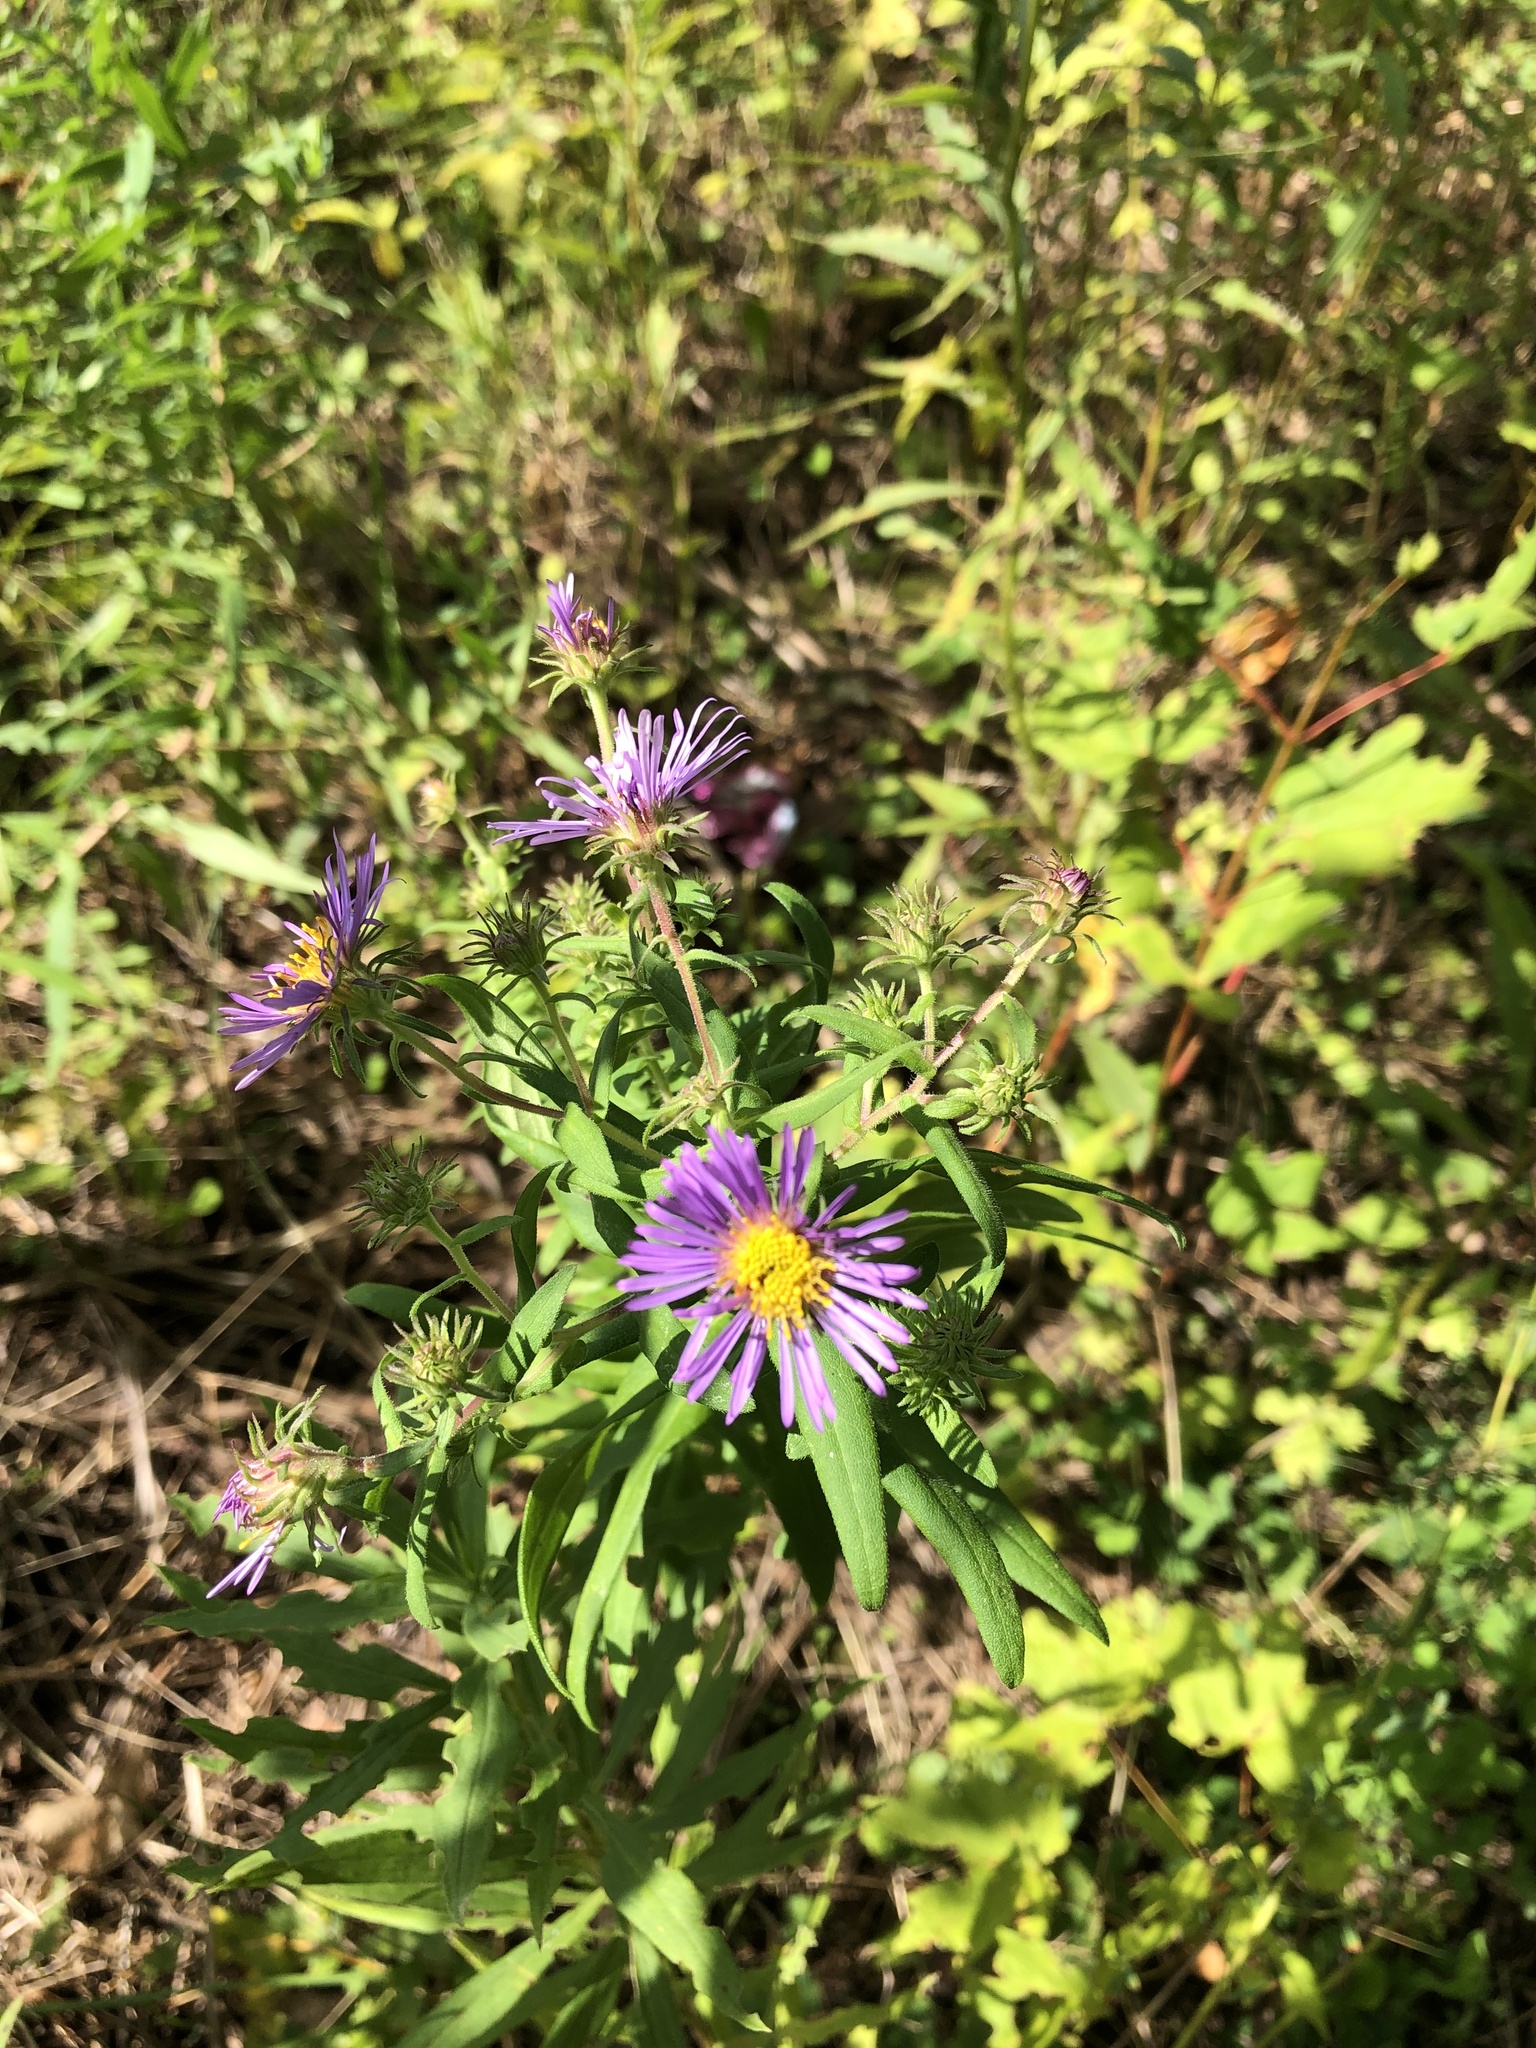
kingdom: Plantae
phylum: Tracheophyta
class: Magnoliopsida
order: Asterales
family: Asteraceae
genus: Symphyotrichum
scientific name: Symphyotrichum novae-angliae
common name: Michaelmas daisy
